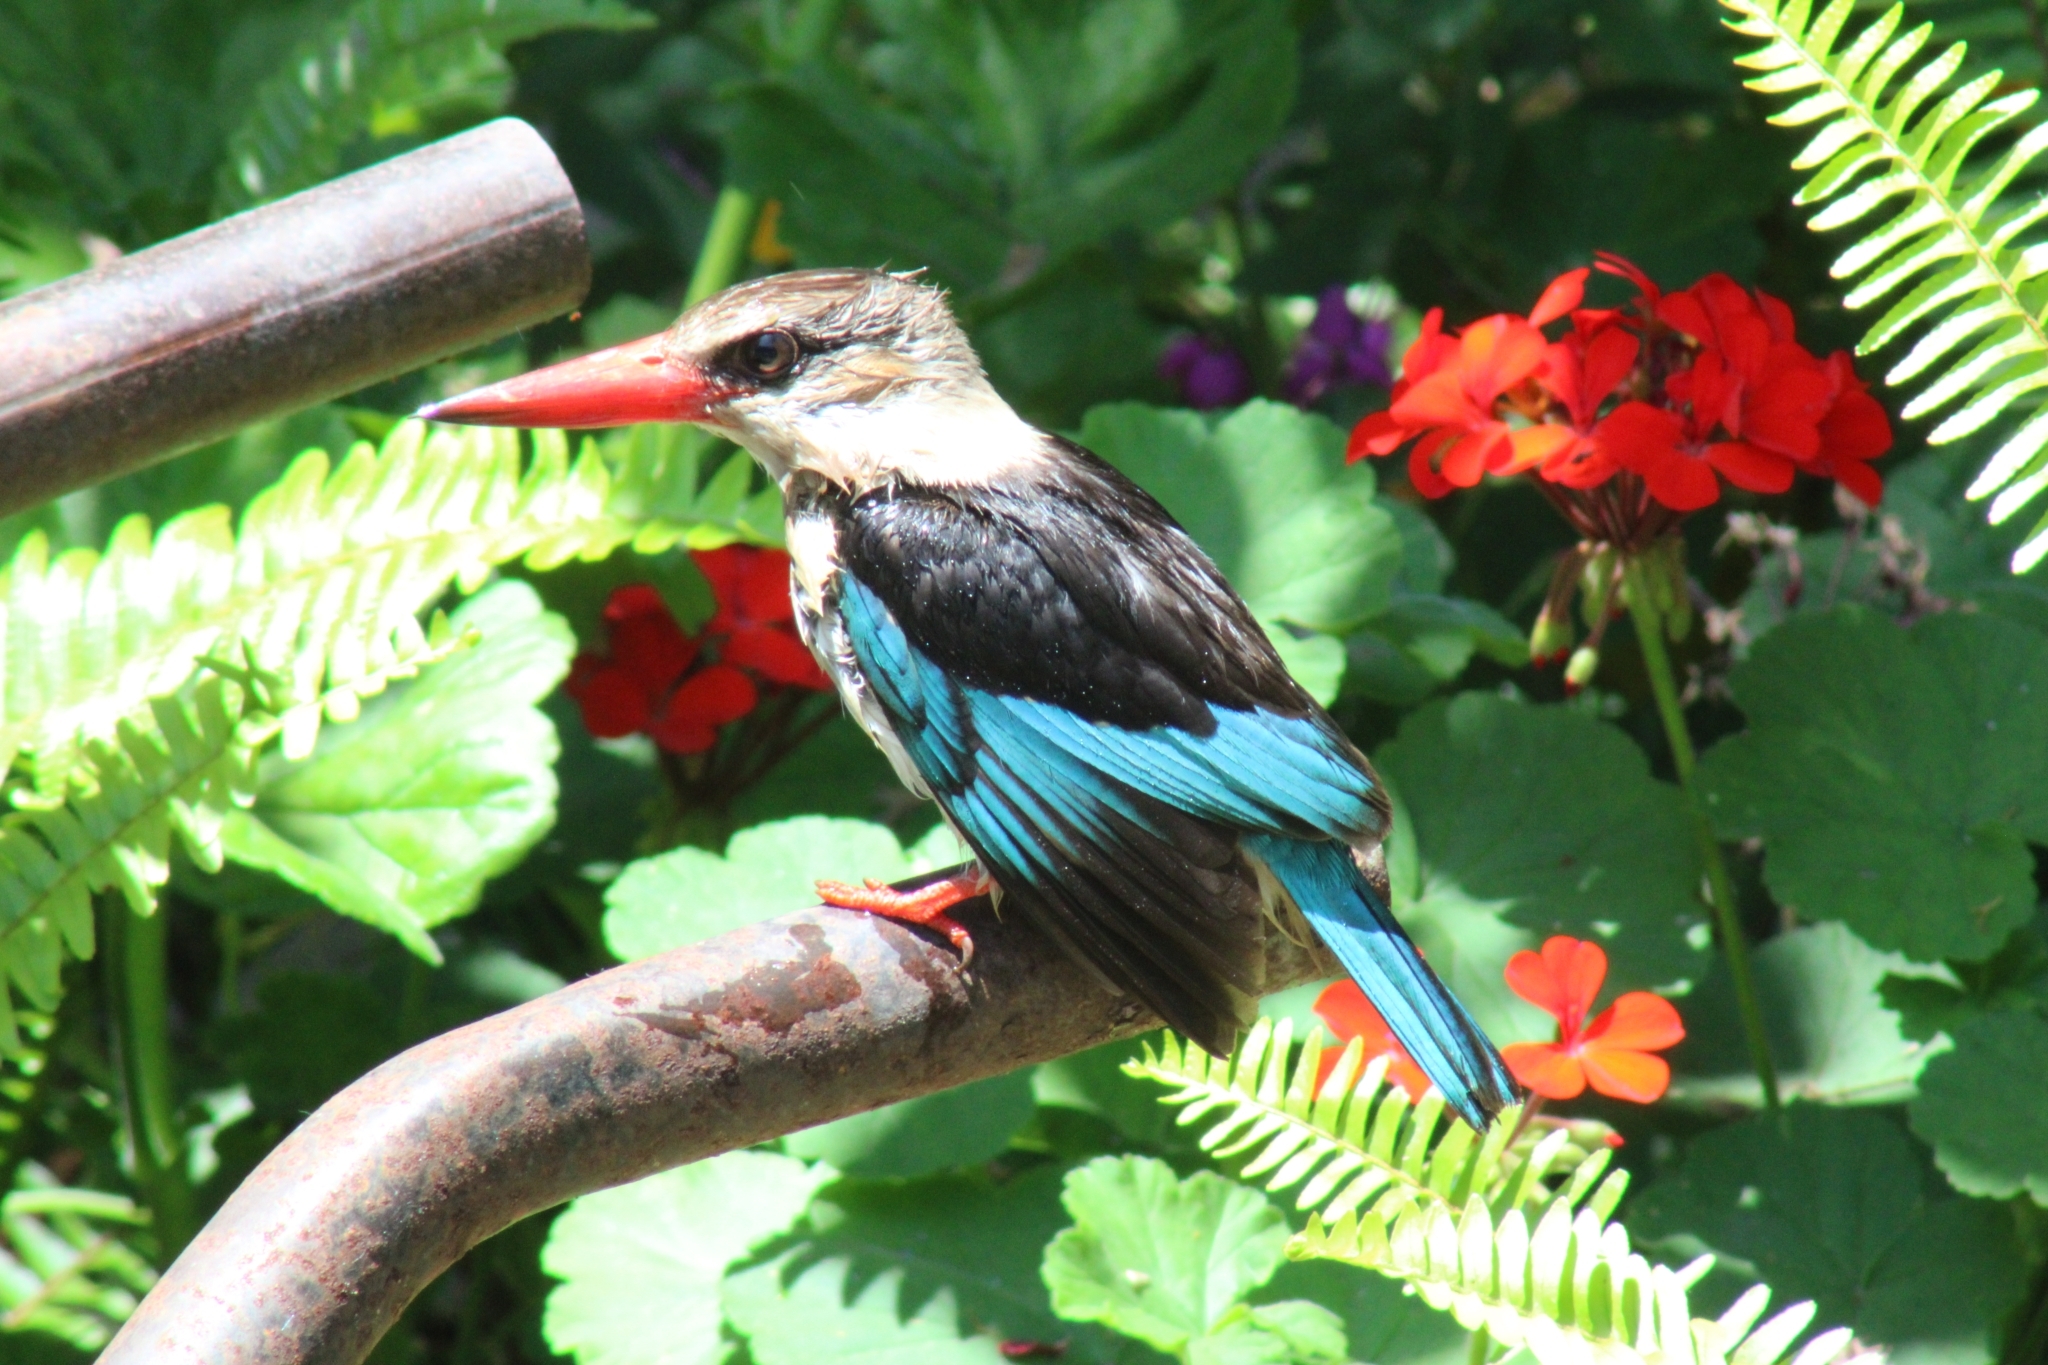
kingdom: Animalia
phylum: Chordata
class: Aves
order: Coraciiformes
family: Alcedinidae
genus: Halcyon
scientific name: Halcyon albiventris
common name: Brown-hooded kingfisher
